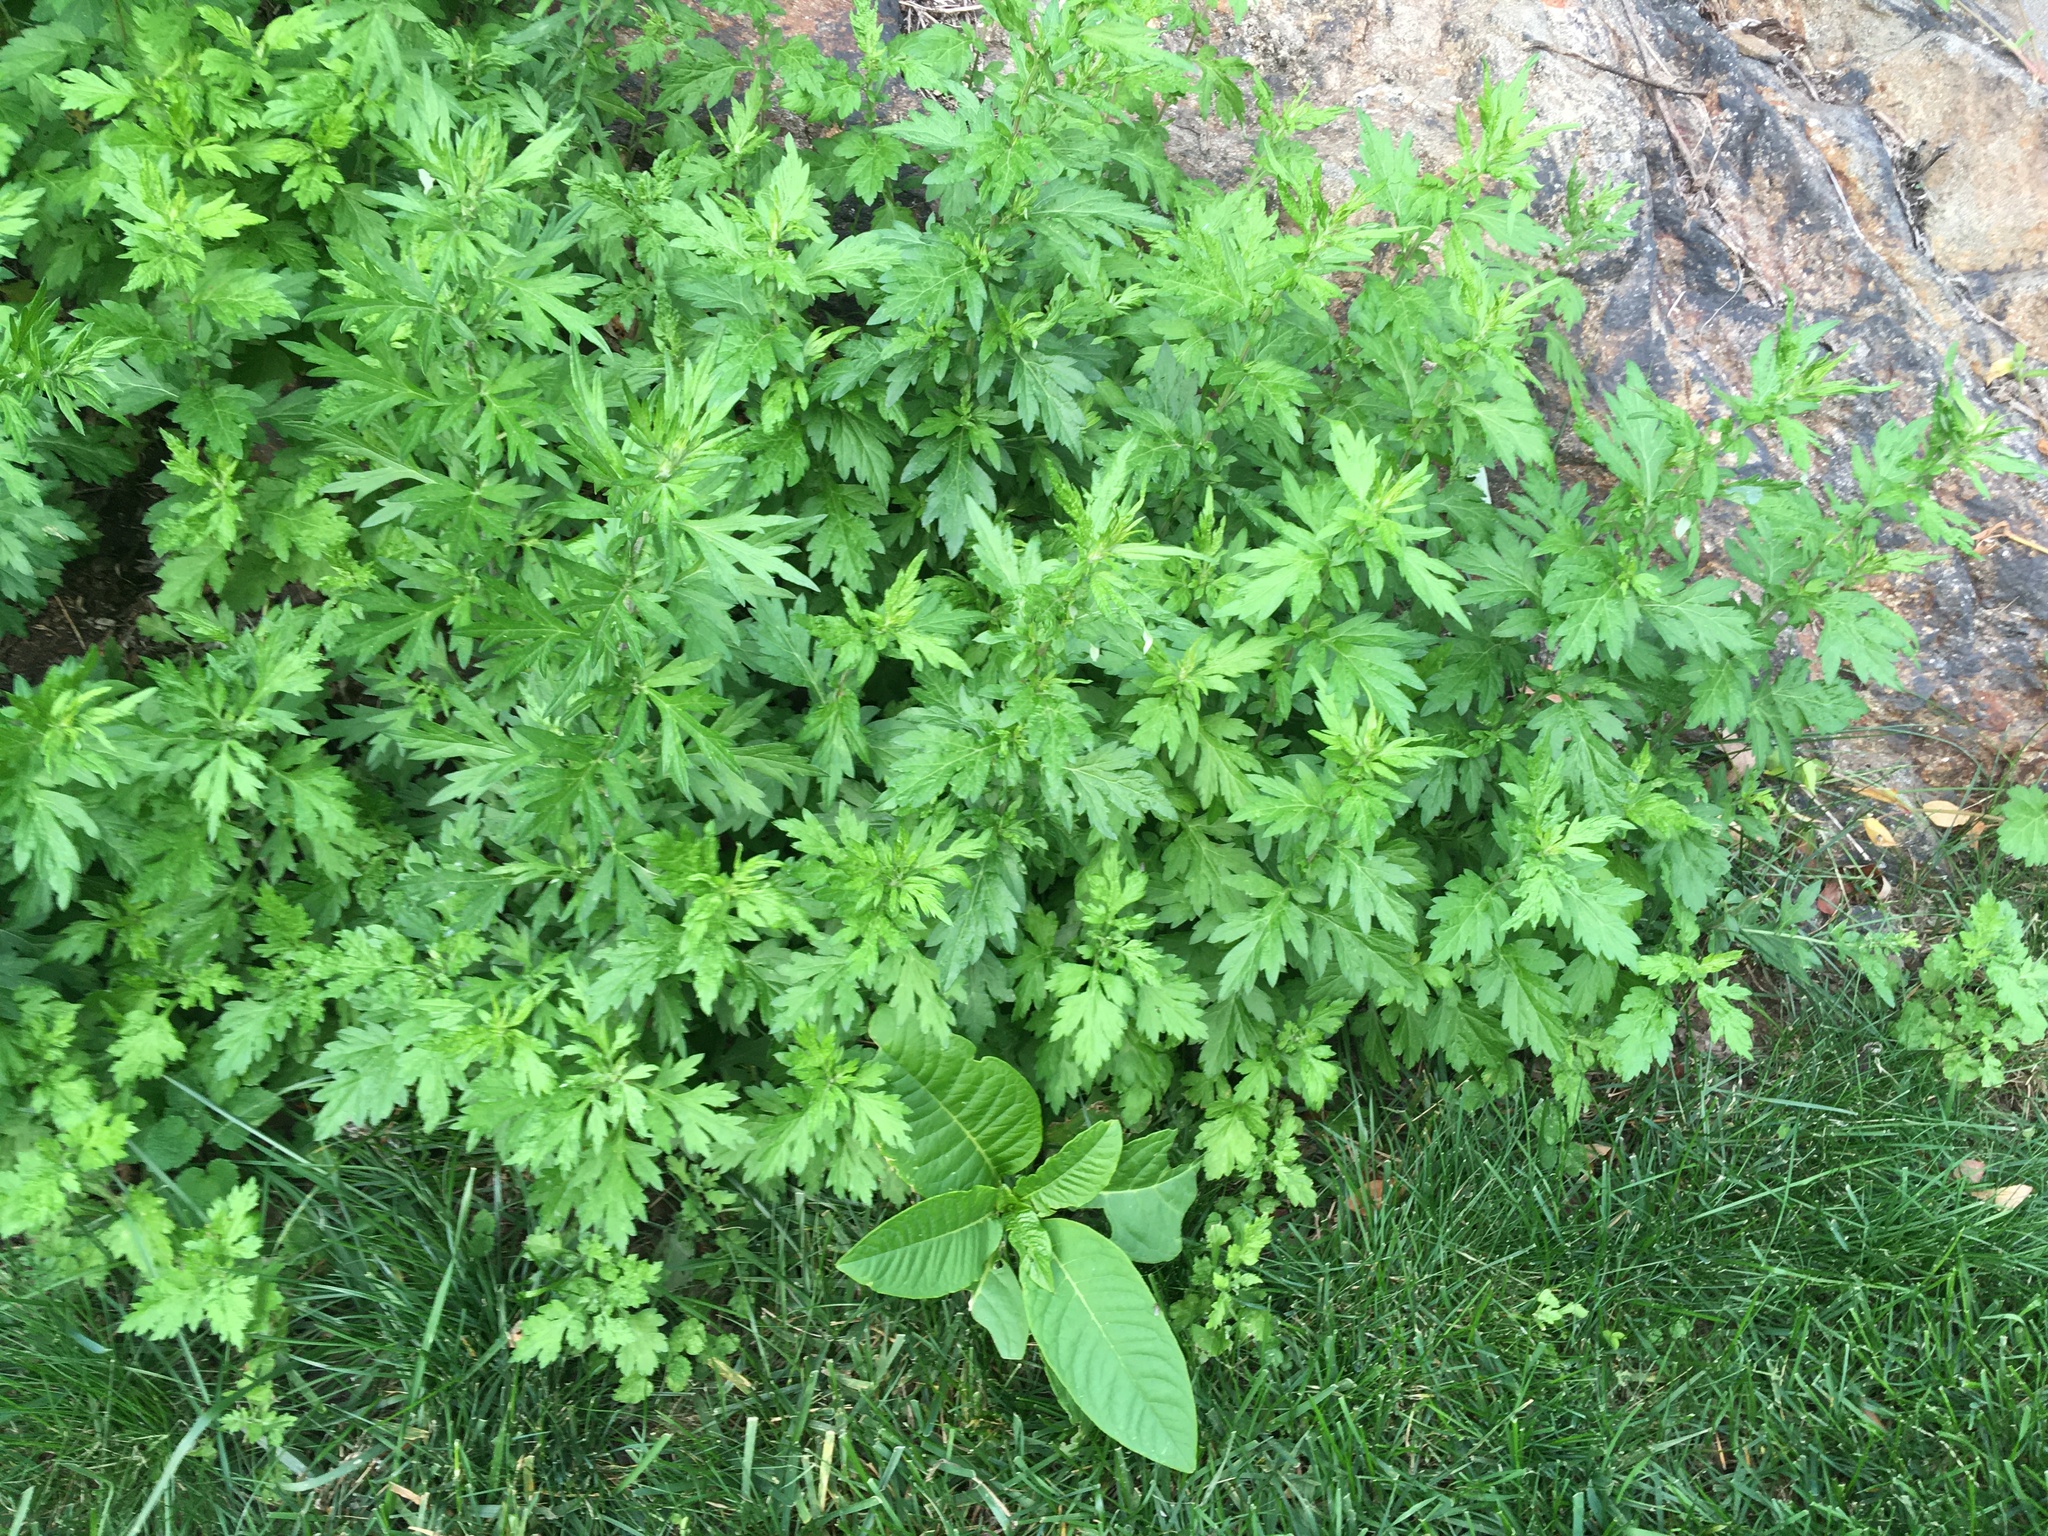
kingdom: Plantae
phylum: Tracheophyta
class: Magnoliopsida
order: Asterales
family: Asteraceae
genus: Artemisia
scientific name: Artemisia vulgaris
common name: Mugwort
